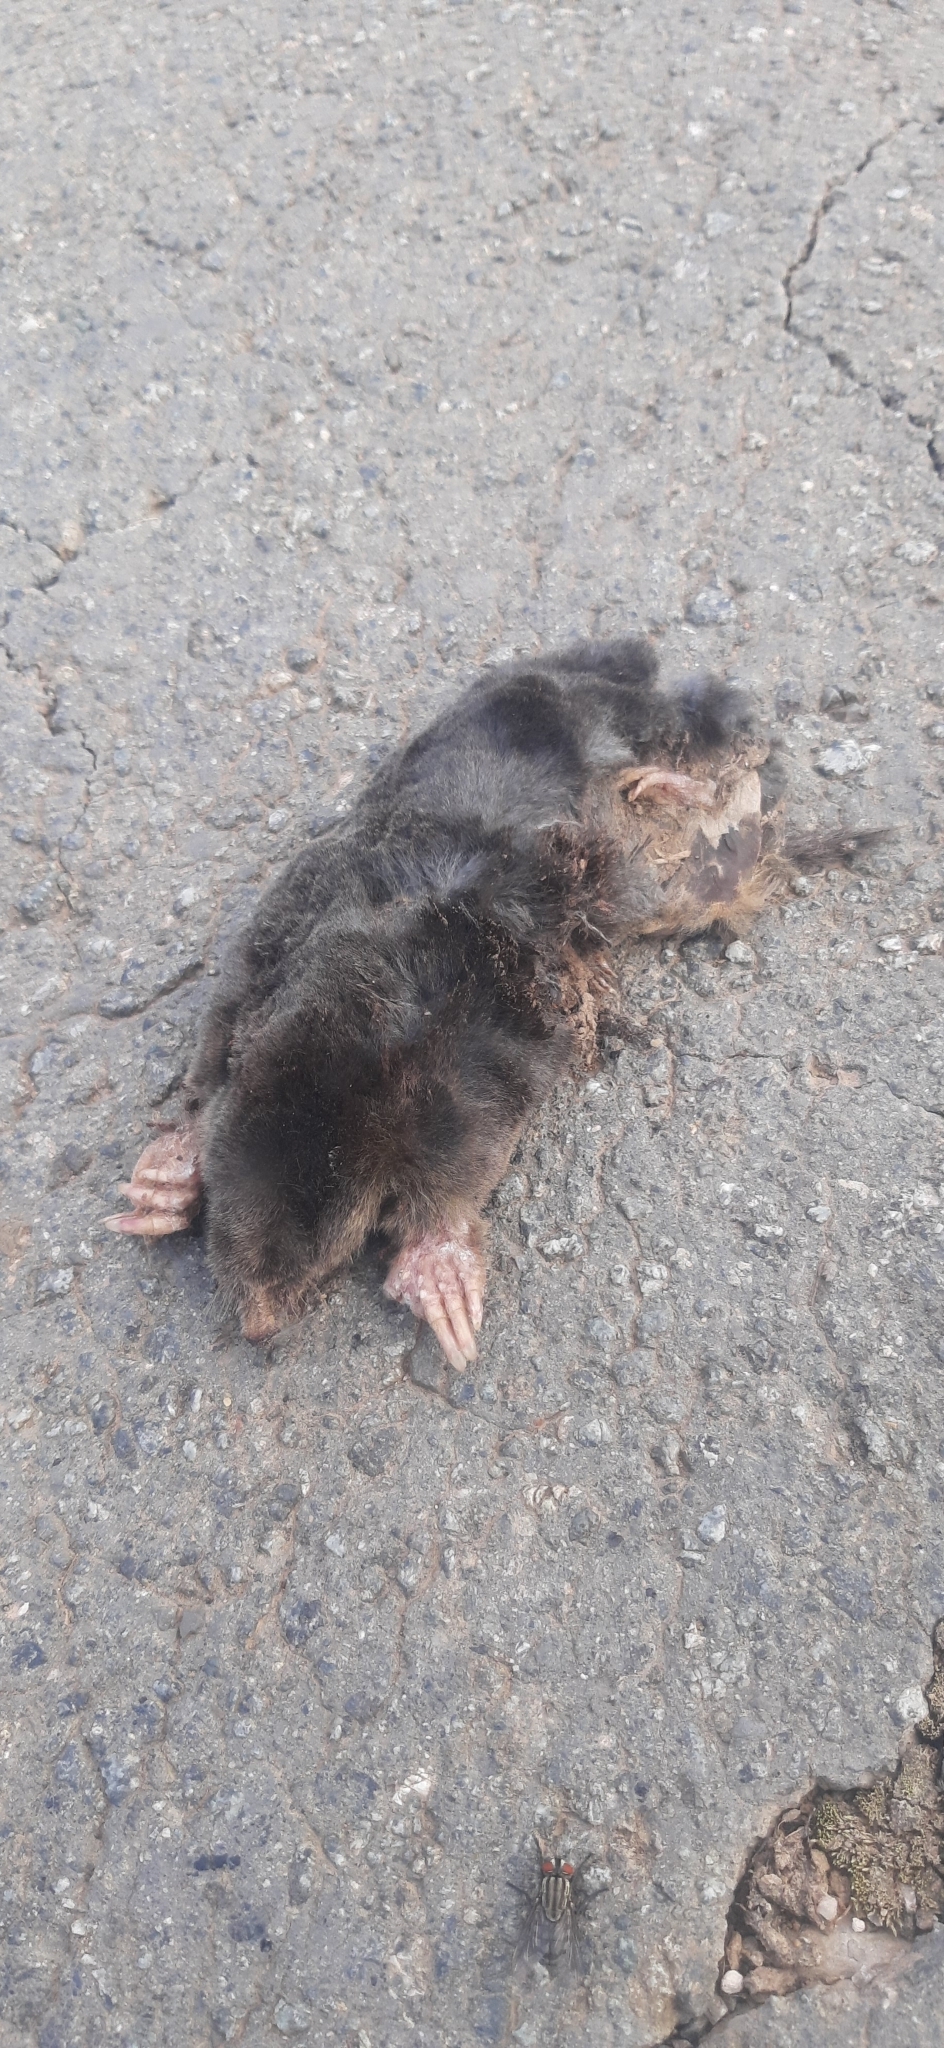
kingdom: Animalia
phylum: Chordata
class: Mammalia
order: Soricomorpha
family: Talpidae
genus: Talpa
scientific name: Talpa europaea
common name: European mole
